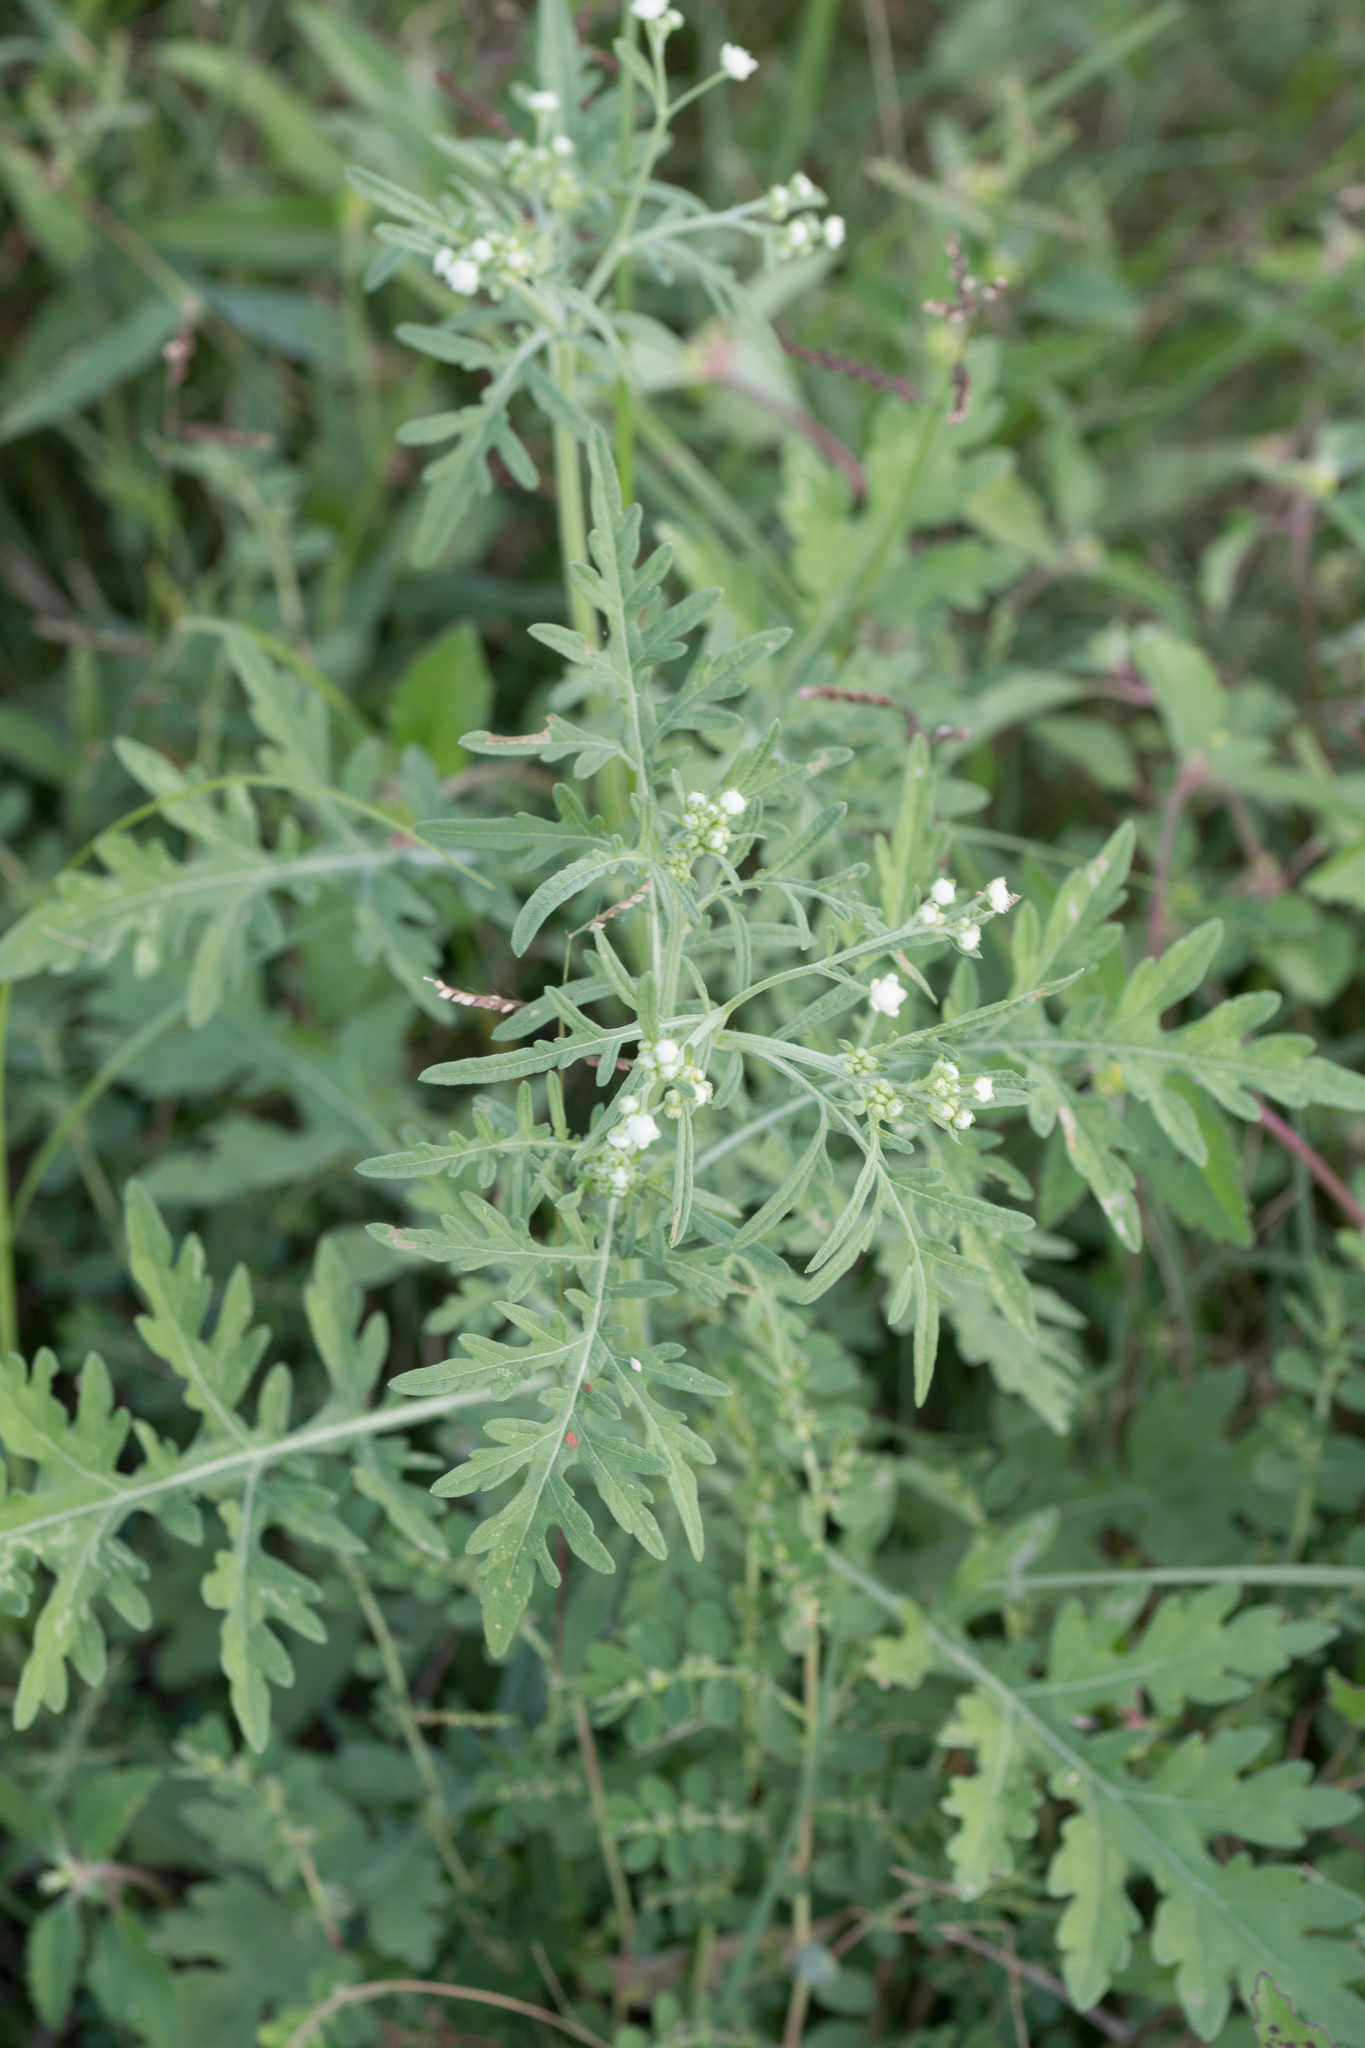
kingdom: Plantae
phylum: Tracheophyta
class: Magnoliopsida
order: Asterales
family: Asteraceae
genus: Parthenium
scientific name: Parthenium hysterophorus
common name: Santa maria feverfew
